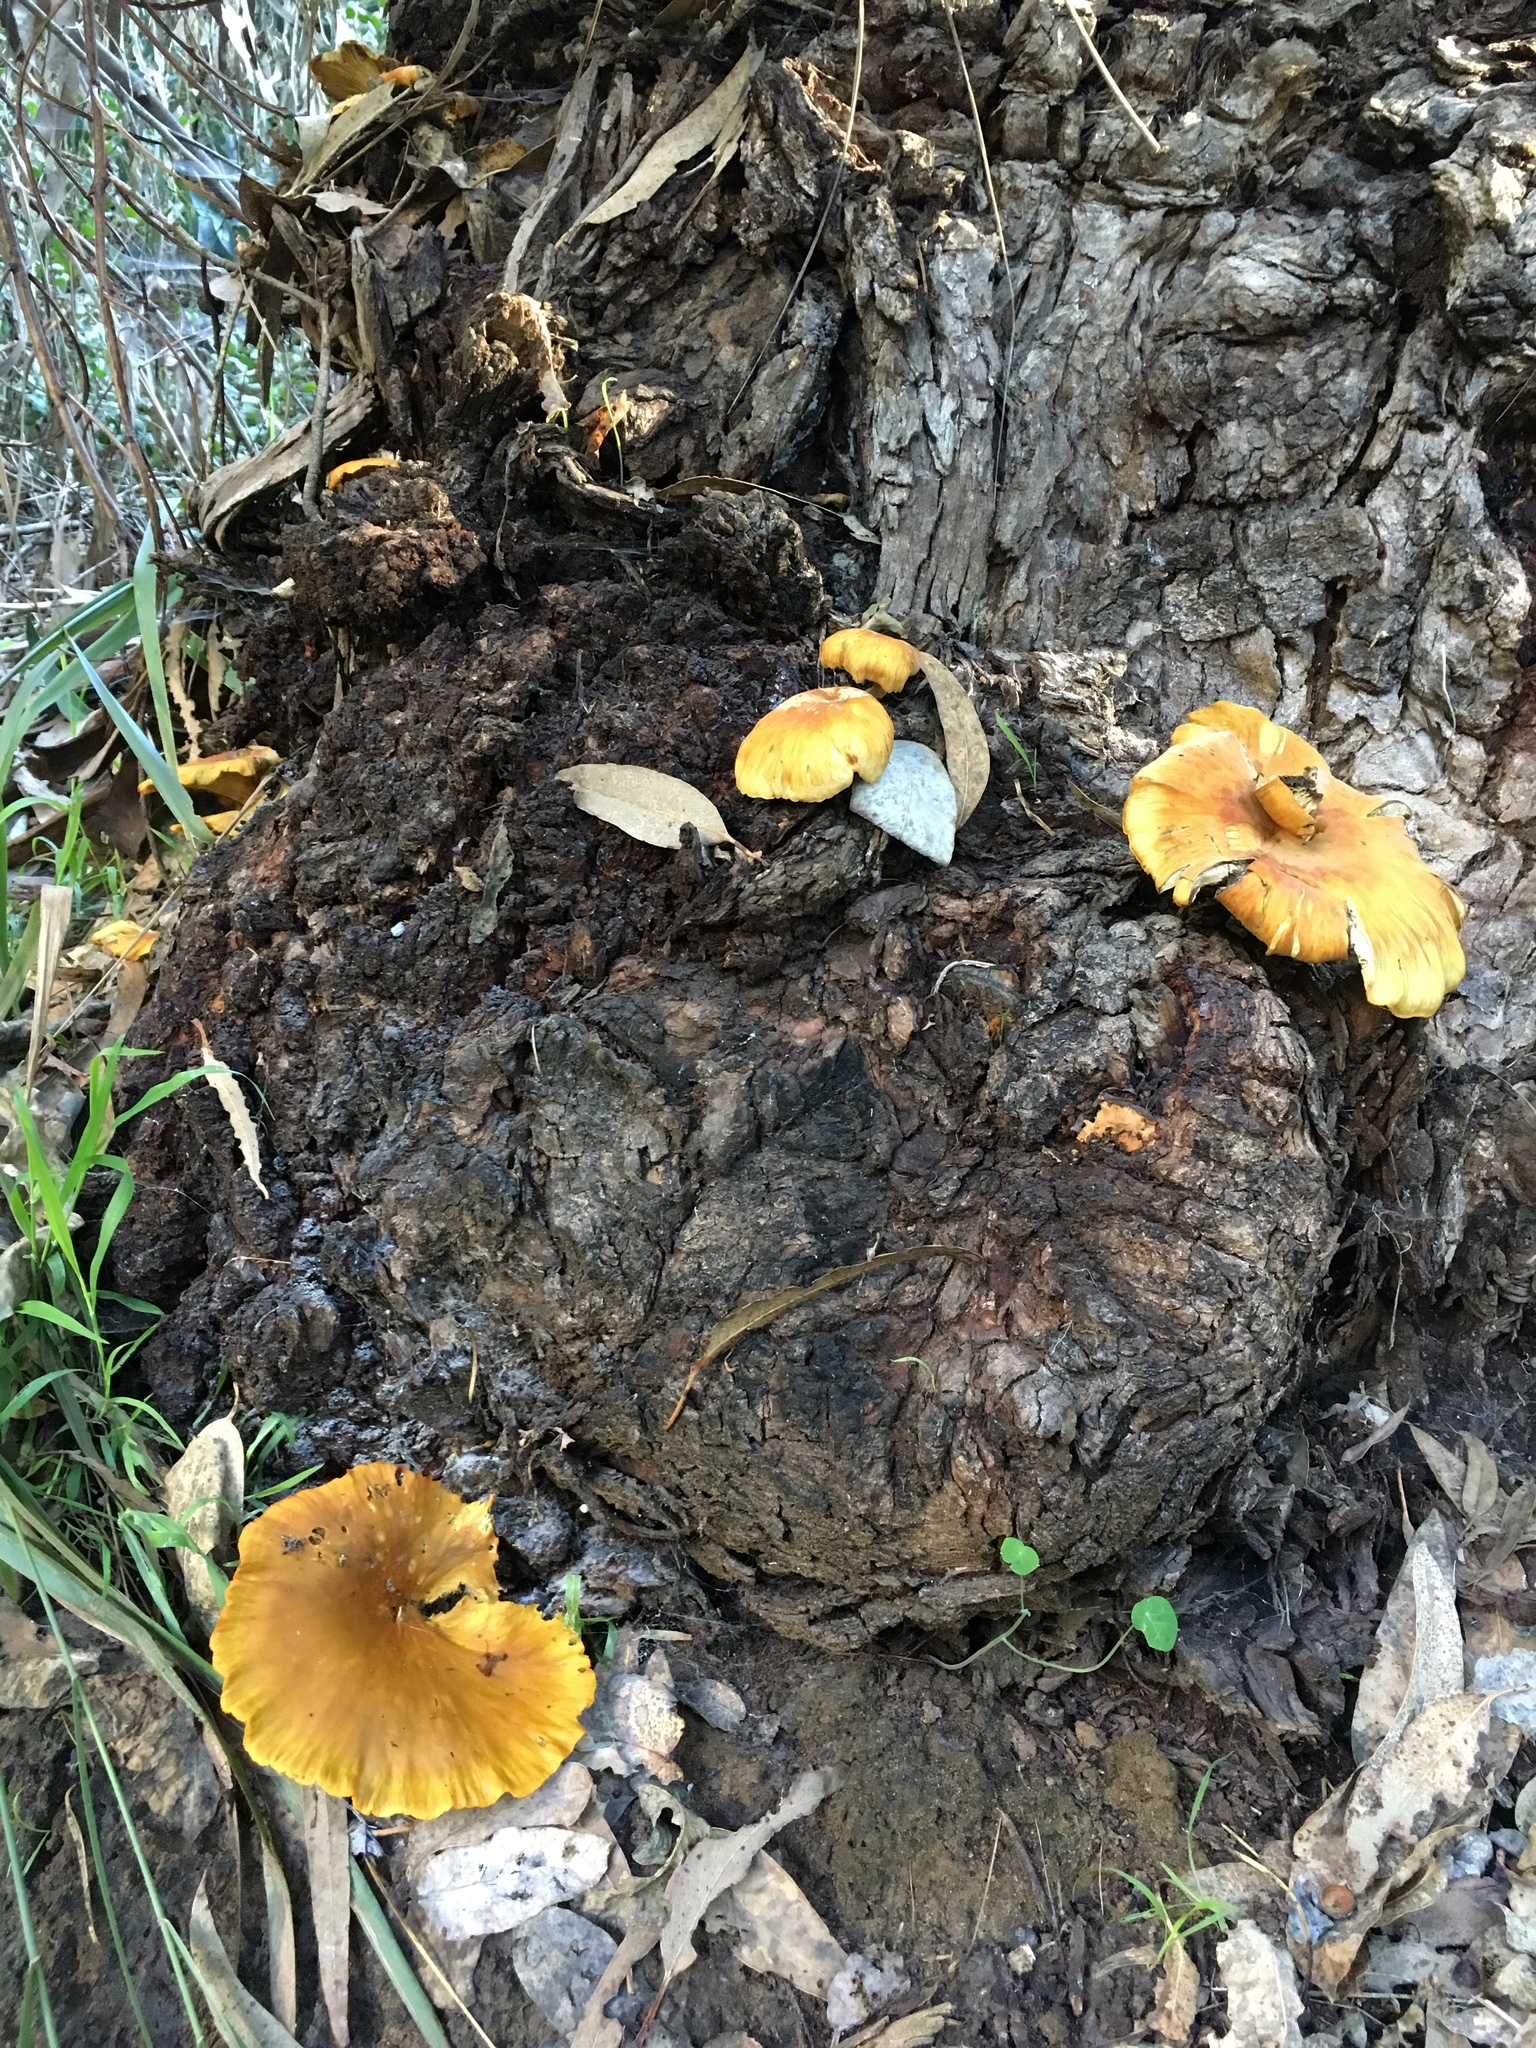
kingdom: Fungi
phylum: Basidiomycota
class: Agaricomycetes
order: Agaricales
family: Omphalotaceae
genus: Omphalotus
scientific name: Omphalotus olivascens
